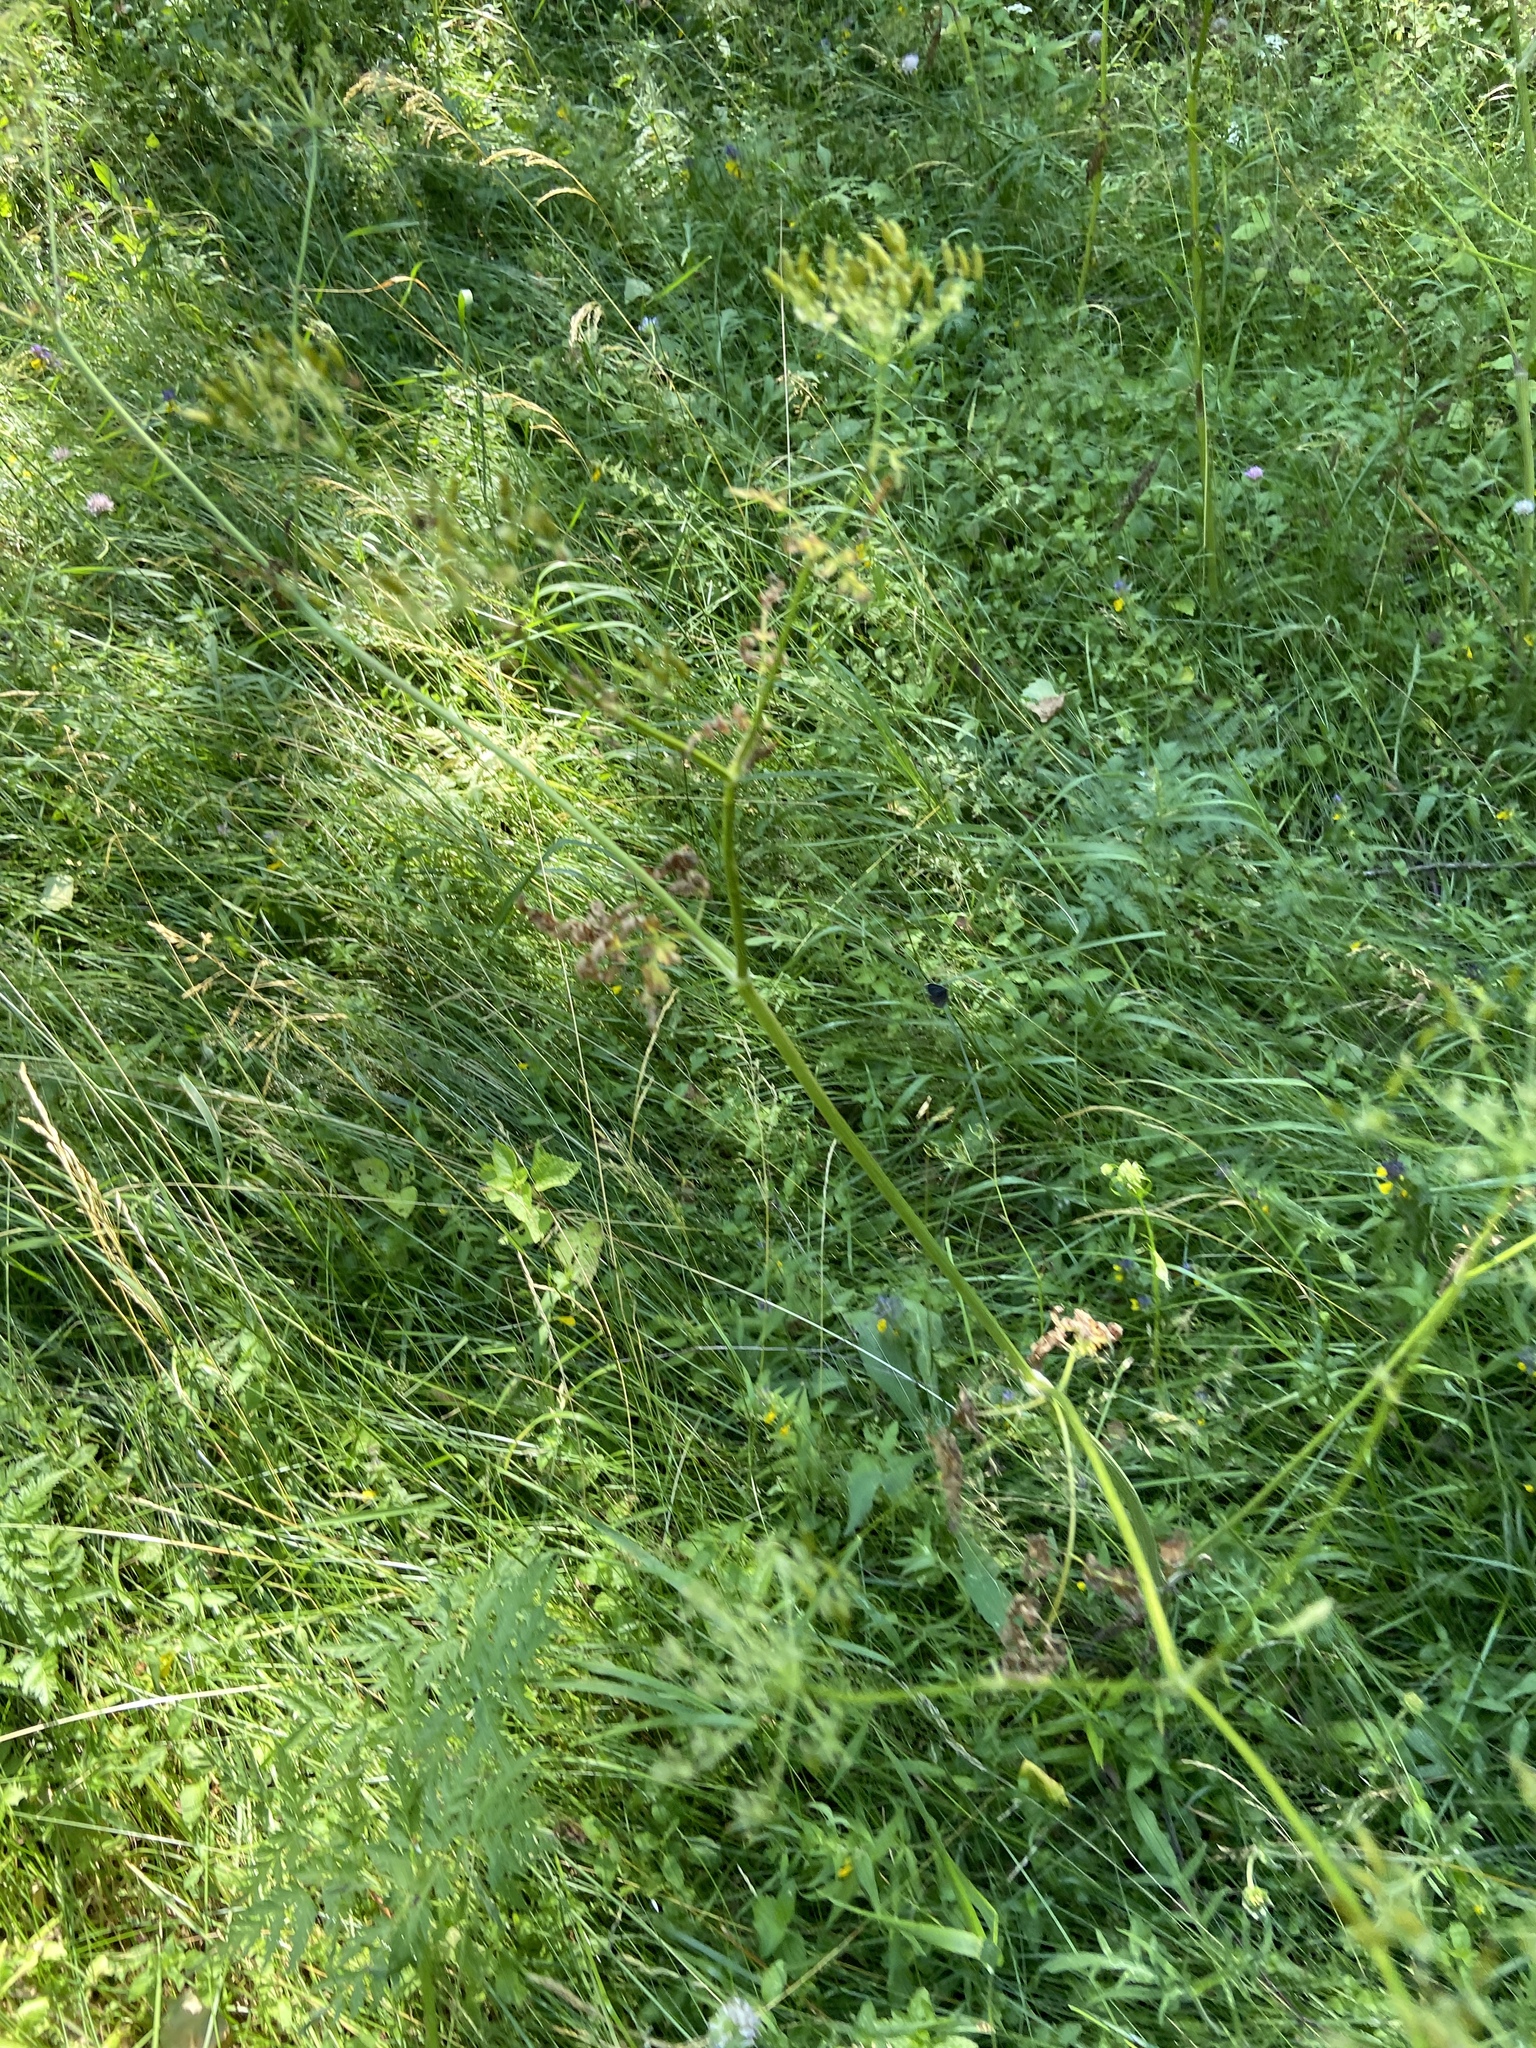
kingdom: Plantae
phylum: Tracheophyta
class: Magnoliopsida
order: Apiales
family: Apiaceae
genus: Anthriscus
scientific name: Anthriscus sylvestris
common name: Cow parsley
